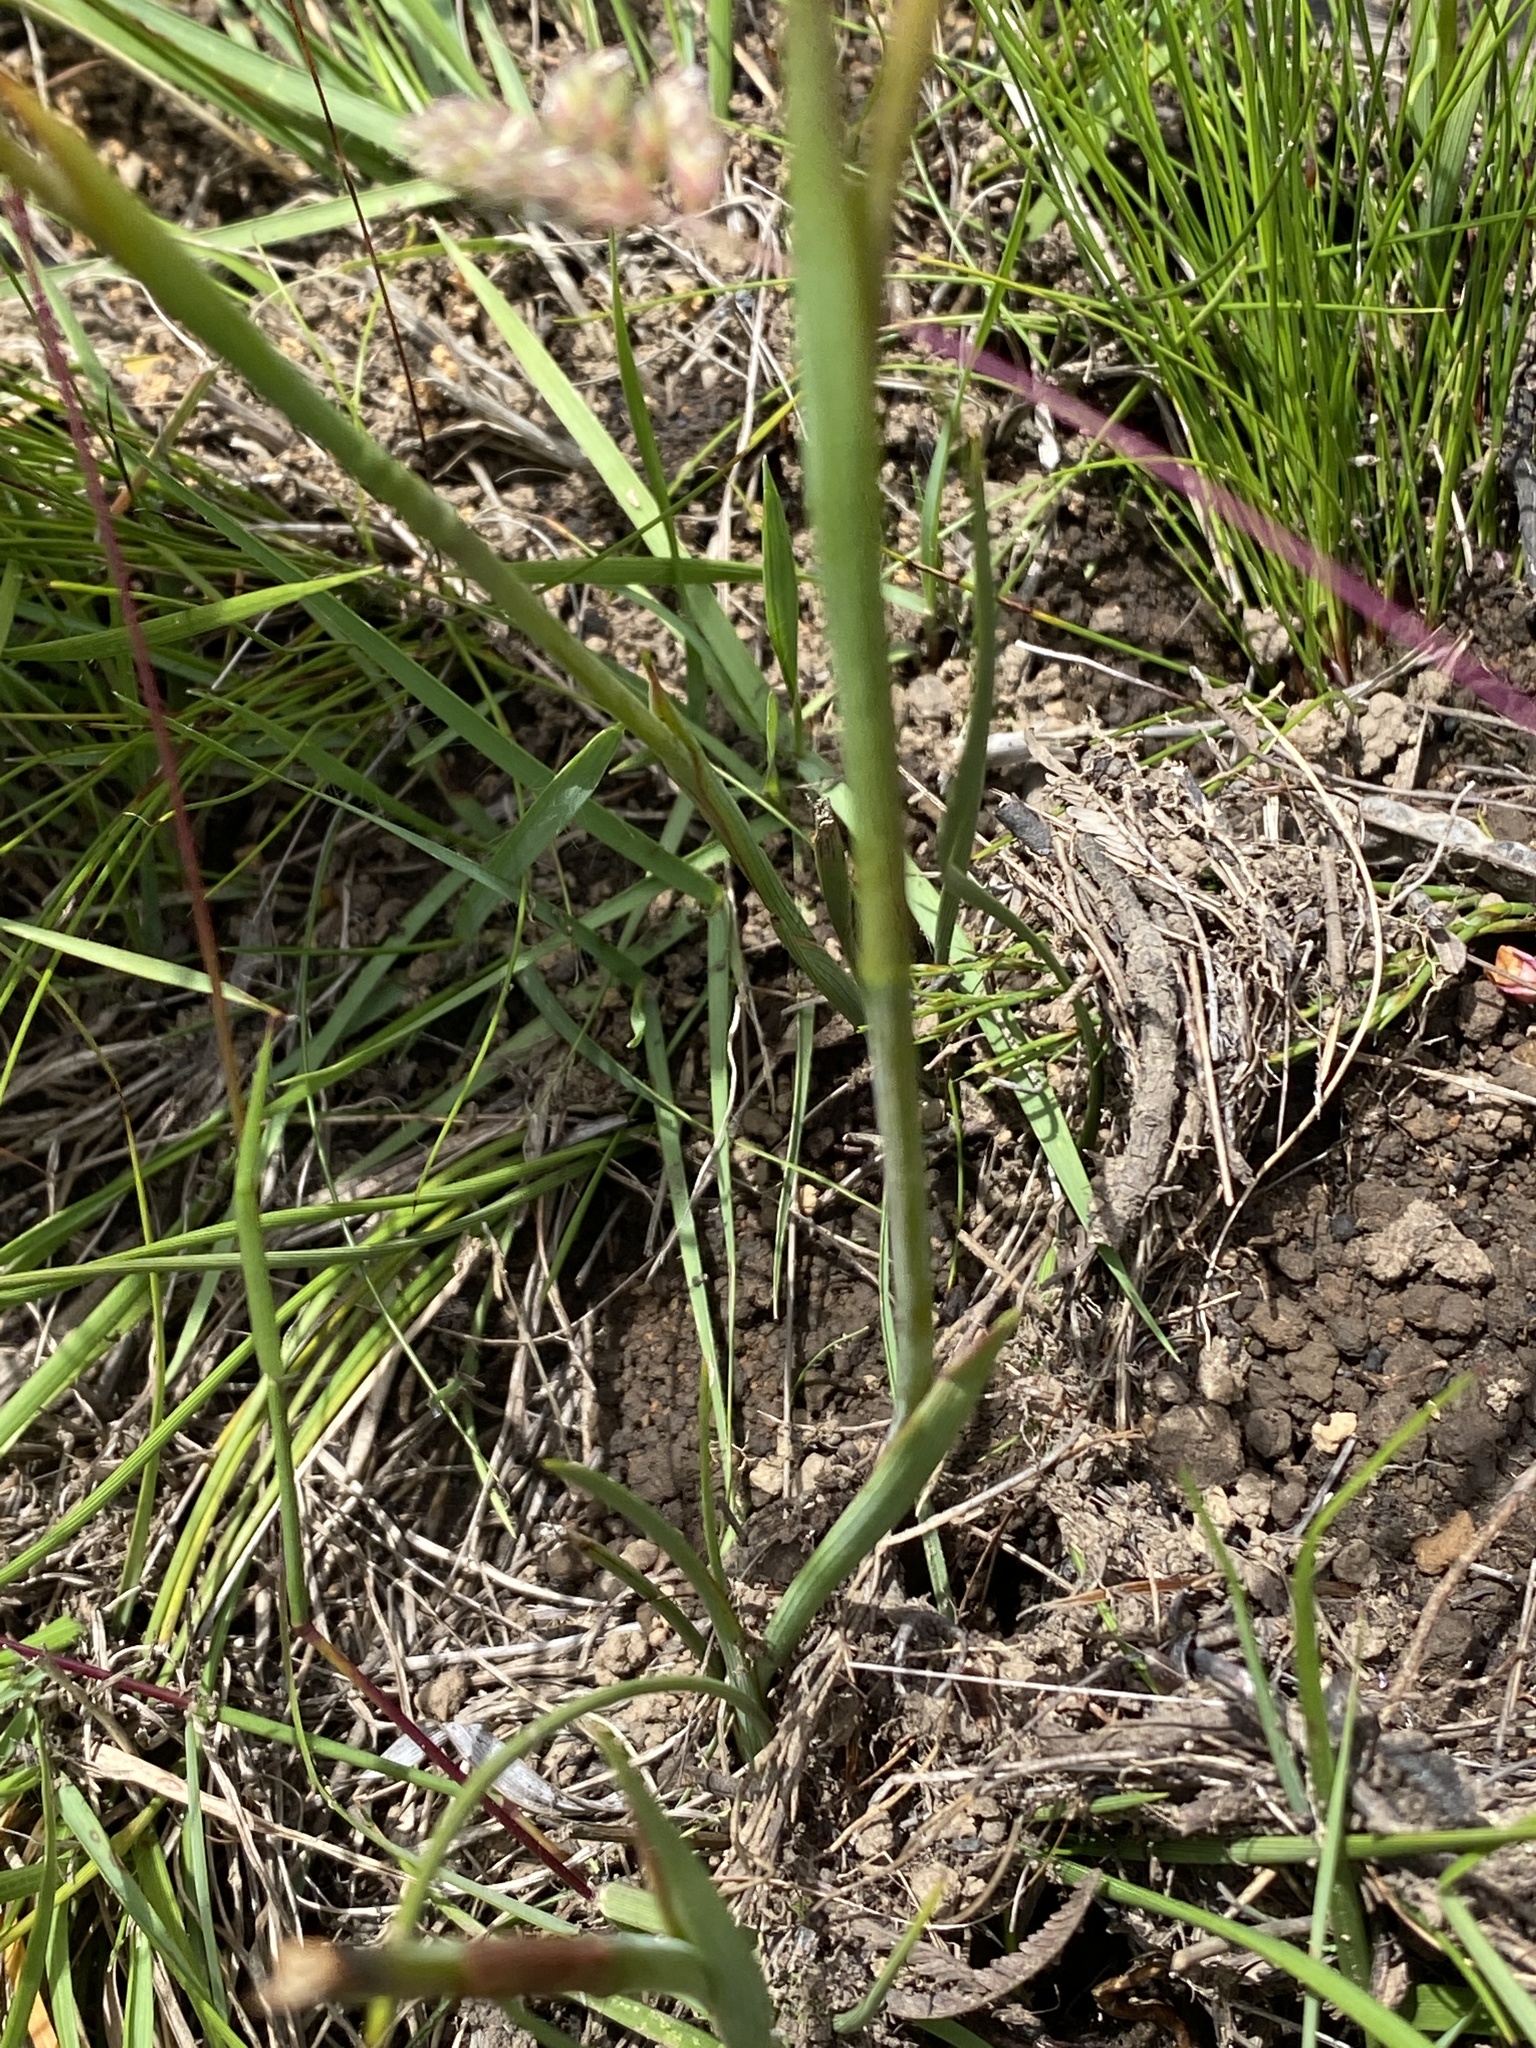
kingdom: Plantae
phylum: Tracheophyta
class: Liliopsida
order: Asparagales
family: Iridaceae
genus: Aristea
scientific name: Aristea rufobracteata
